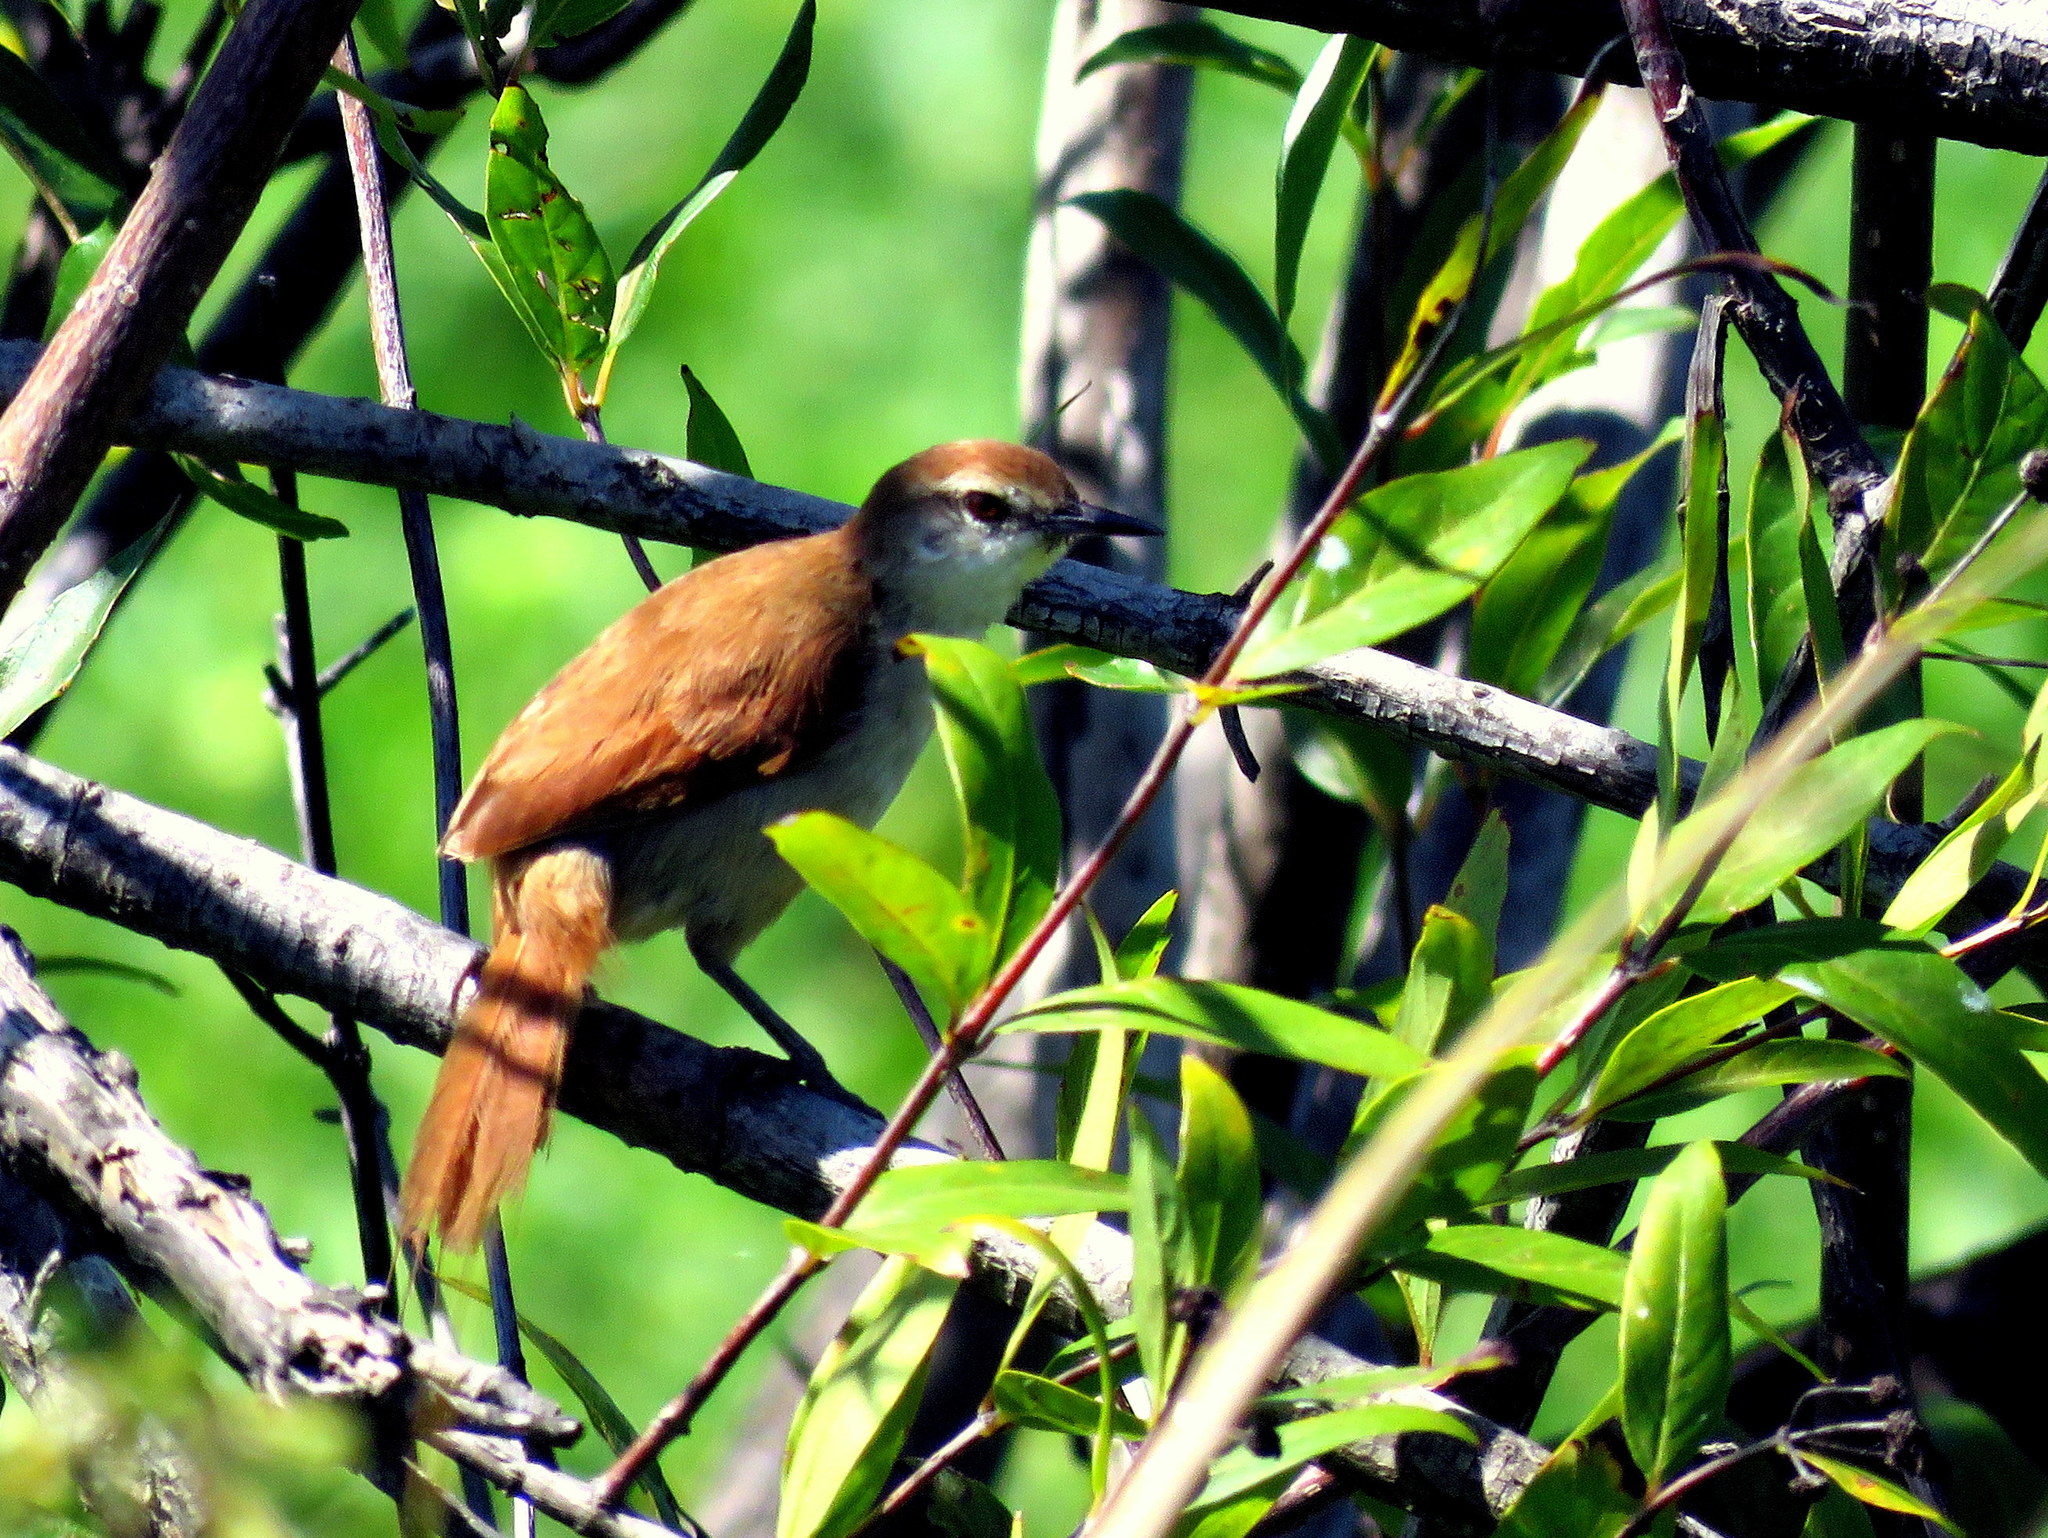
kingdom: Animalia
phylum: Chordata
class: Aves
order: Passeriformes
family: Furnariidae
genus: Certhiaxis
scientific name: Certhiaxis cinnamomeus
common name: Yellow-chinned spinetail
